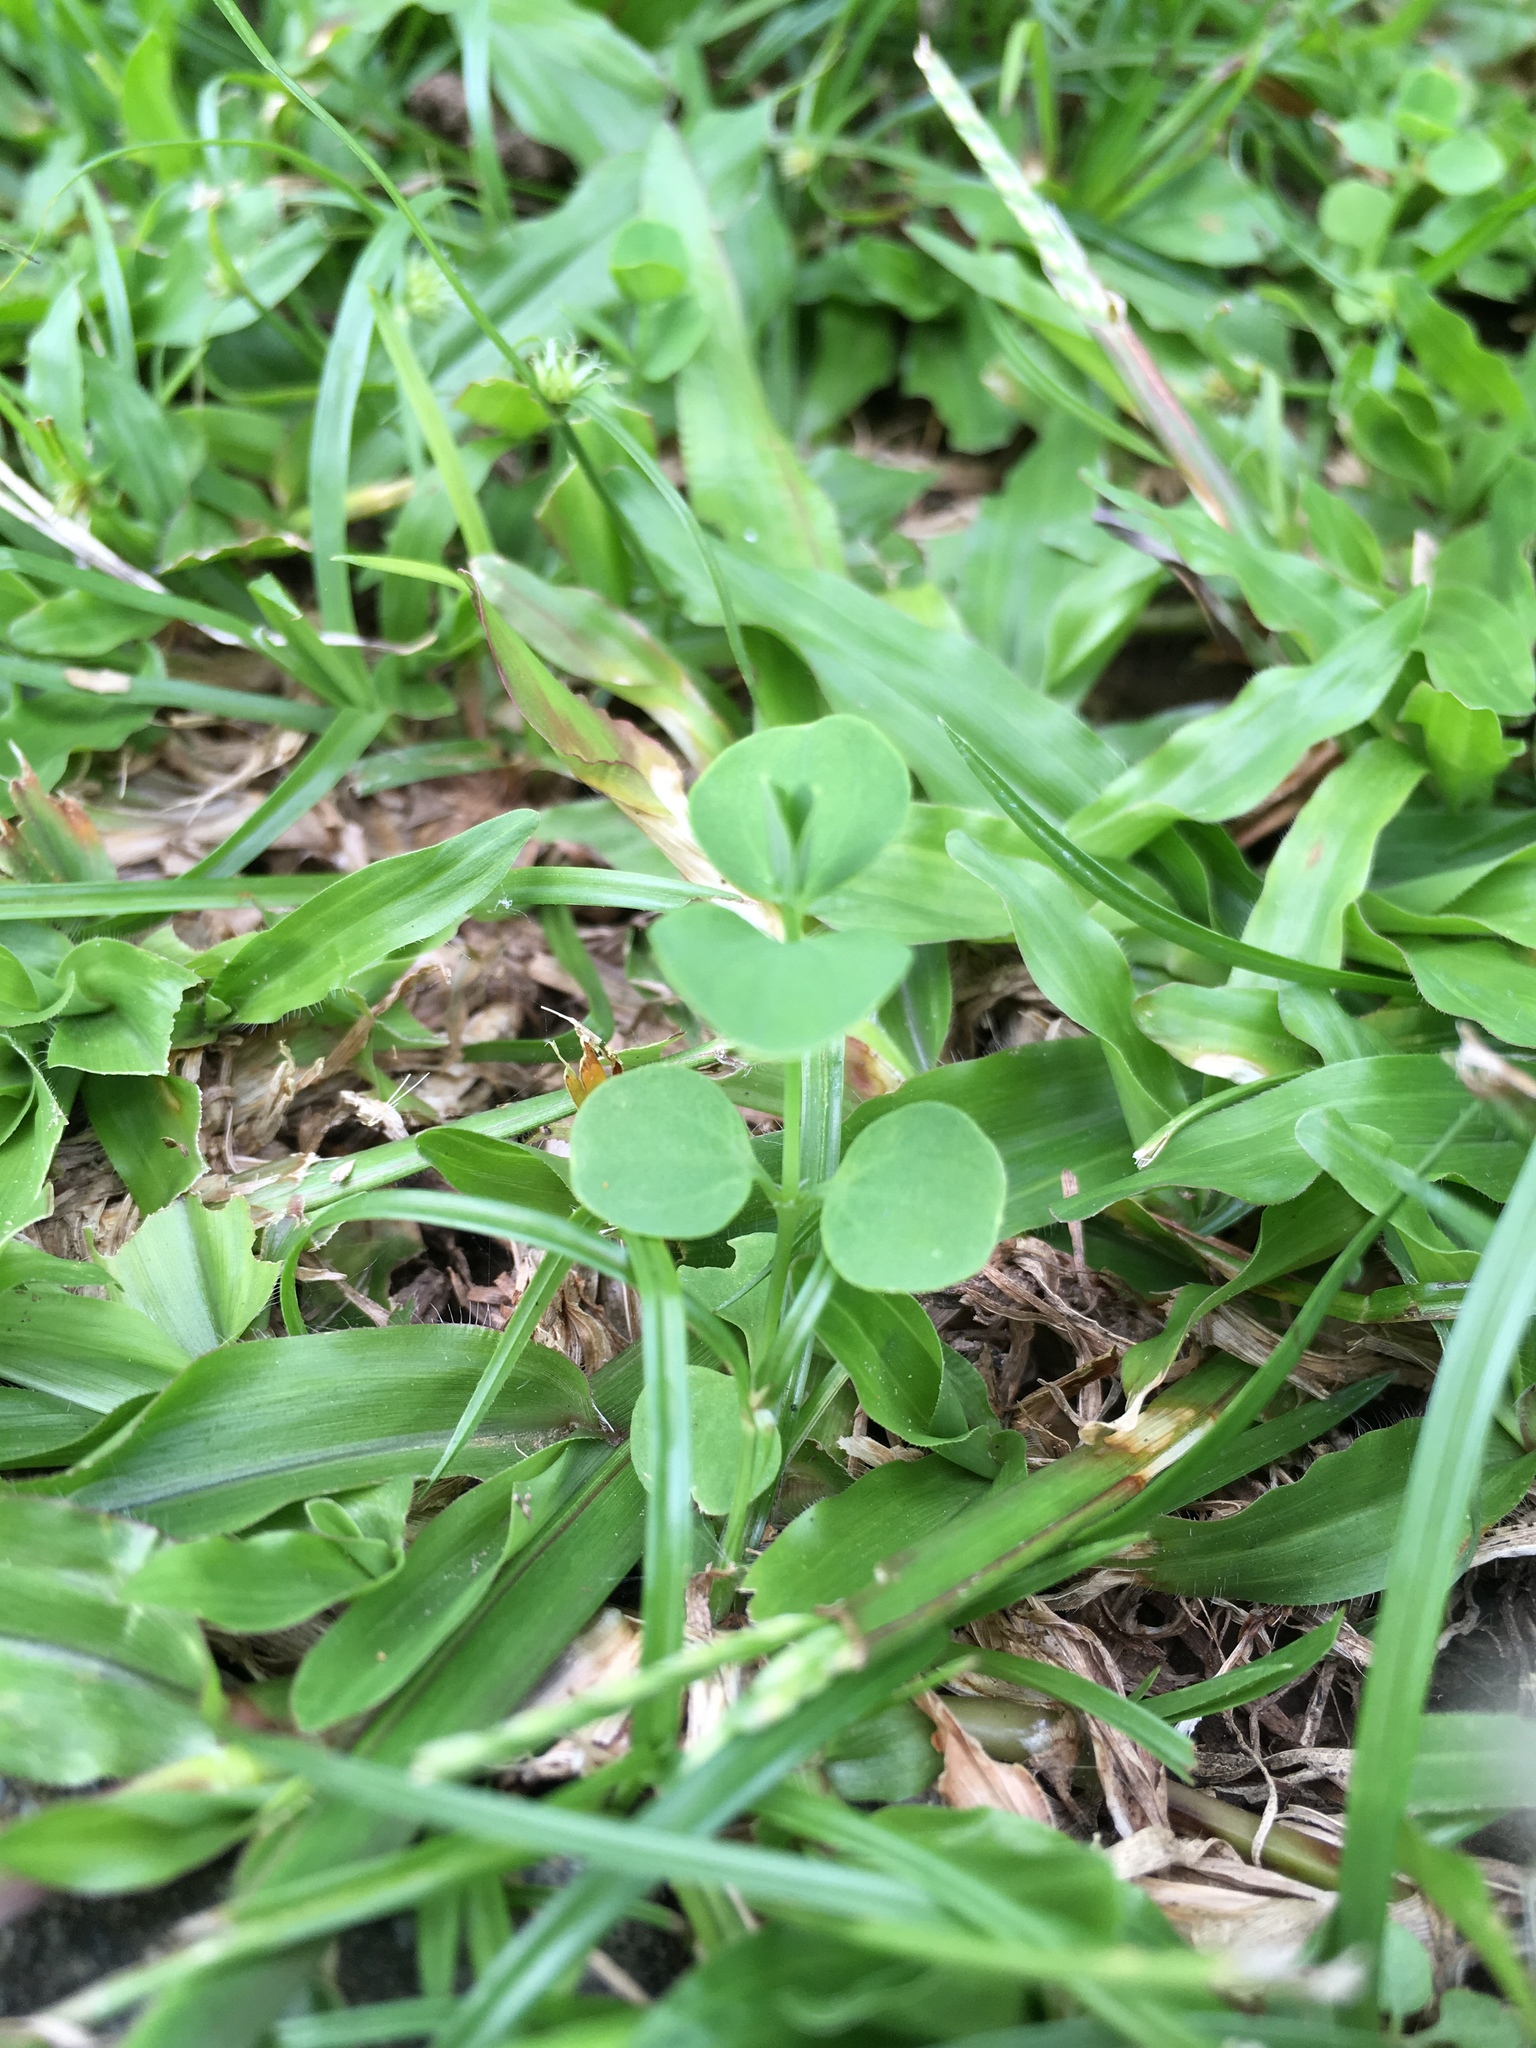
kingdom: Plantae
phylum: Tracheophyta
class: Magnoliopsida
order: Caryophyllales
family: Caryophyllaceae
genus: Drymaria
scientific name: Drymaria cordata
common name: Whitesnow
